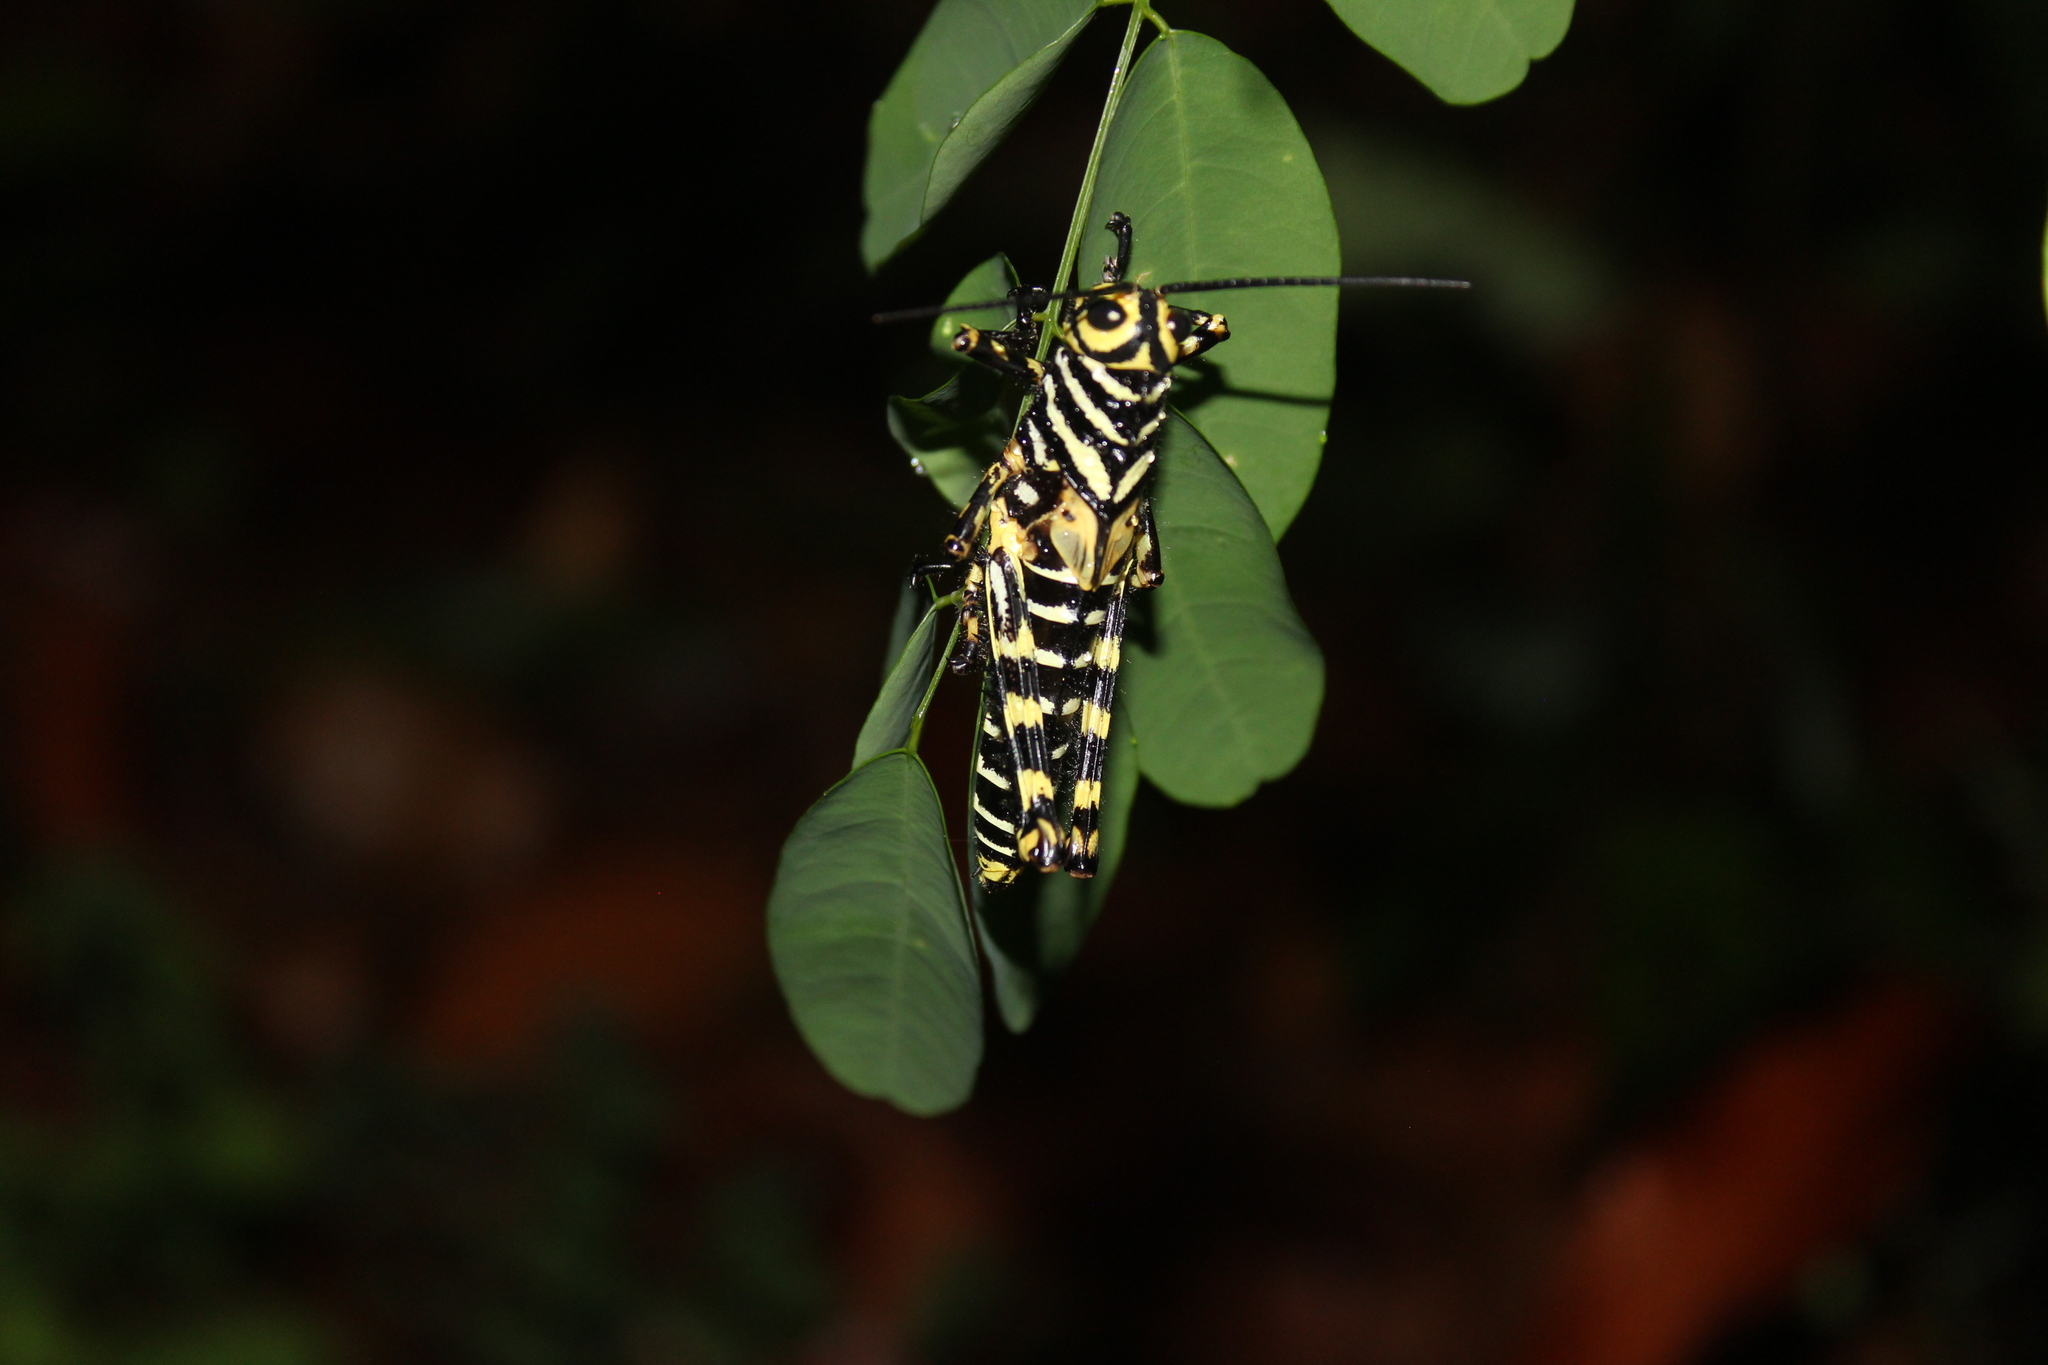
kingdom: Animalia
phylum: Arthropoda
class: Insecta
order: Orthoptera
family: Romaleidae
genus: Tropidacris
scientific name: Tropidacris cristata
